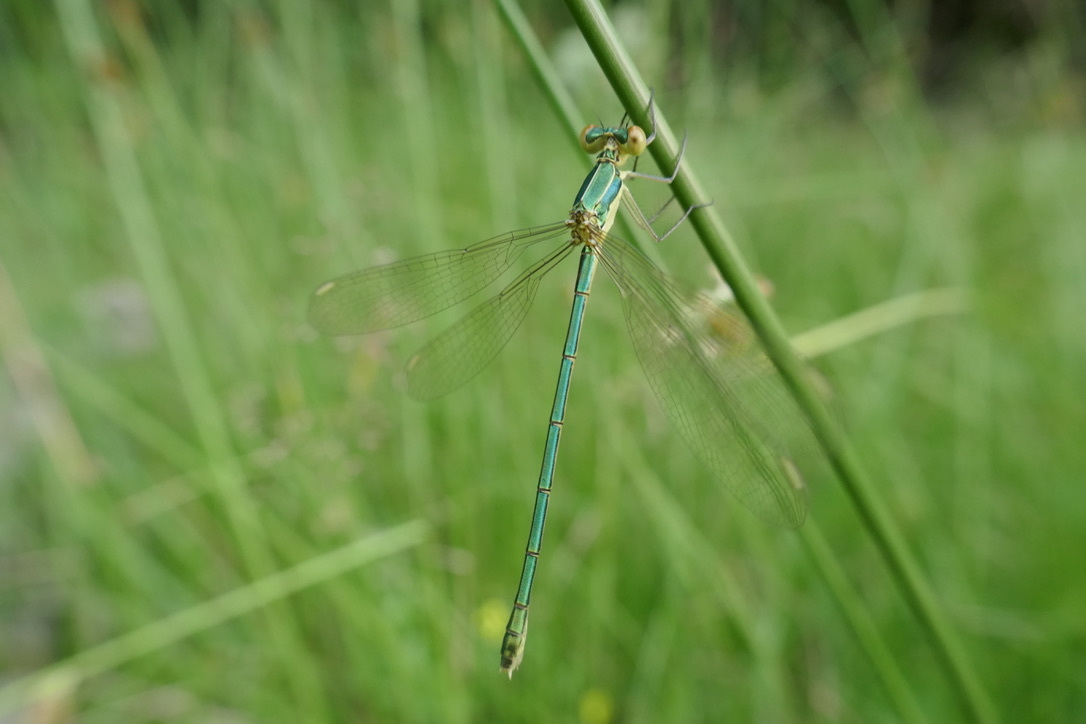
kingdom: Animalia
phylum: Arthropoda
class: Insecta
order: Odonata
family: Lestidae
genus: Lestes
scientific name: Lestes virens
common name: Small emerald spreadwing
